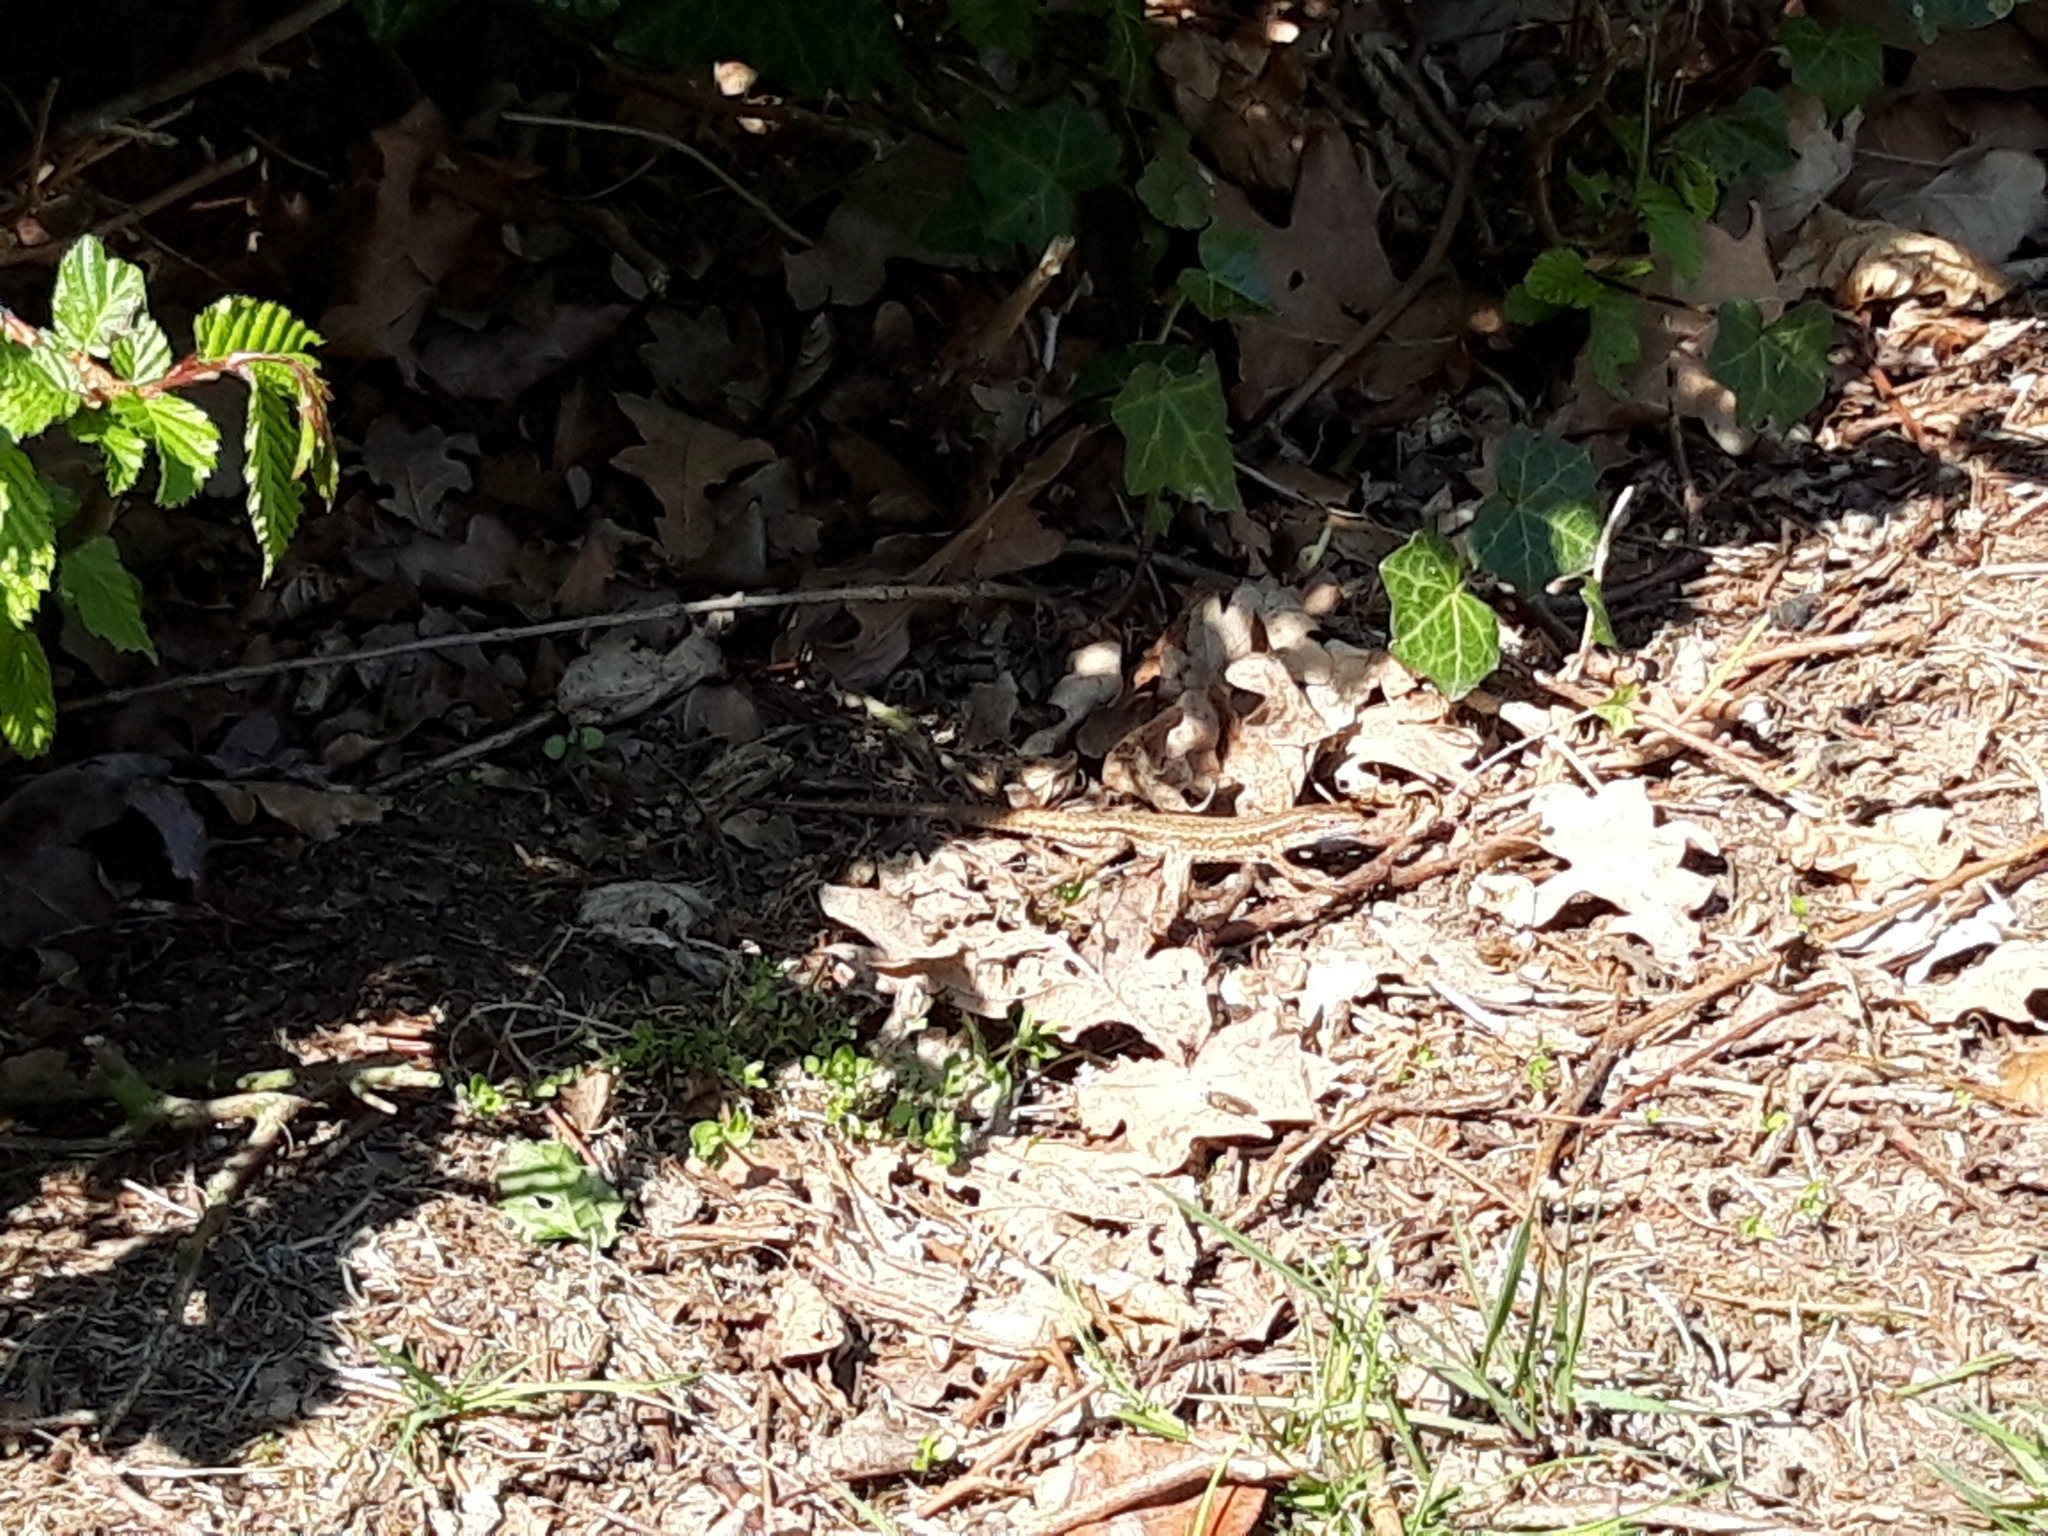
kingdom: Animalia
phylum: Chordata
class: Squamata
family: Lacertidae
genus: Zootoca
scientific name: Zootoca vivipara
